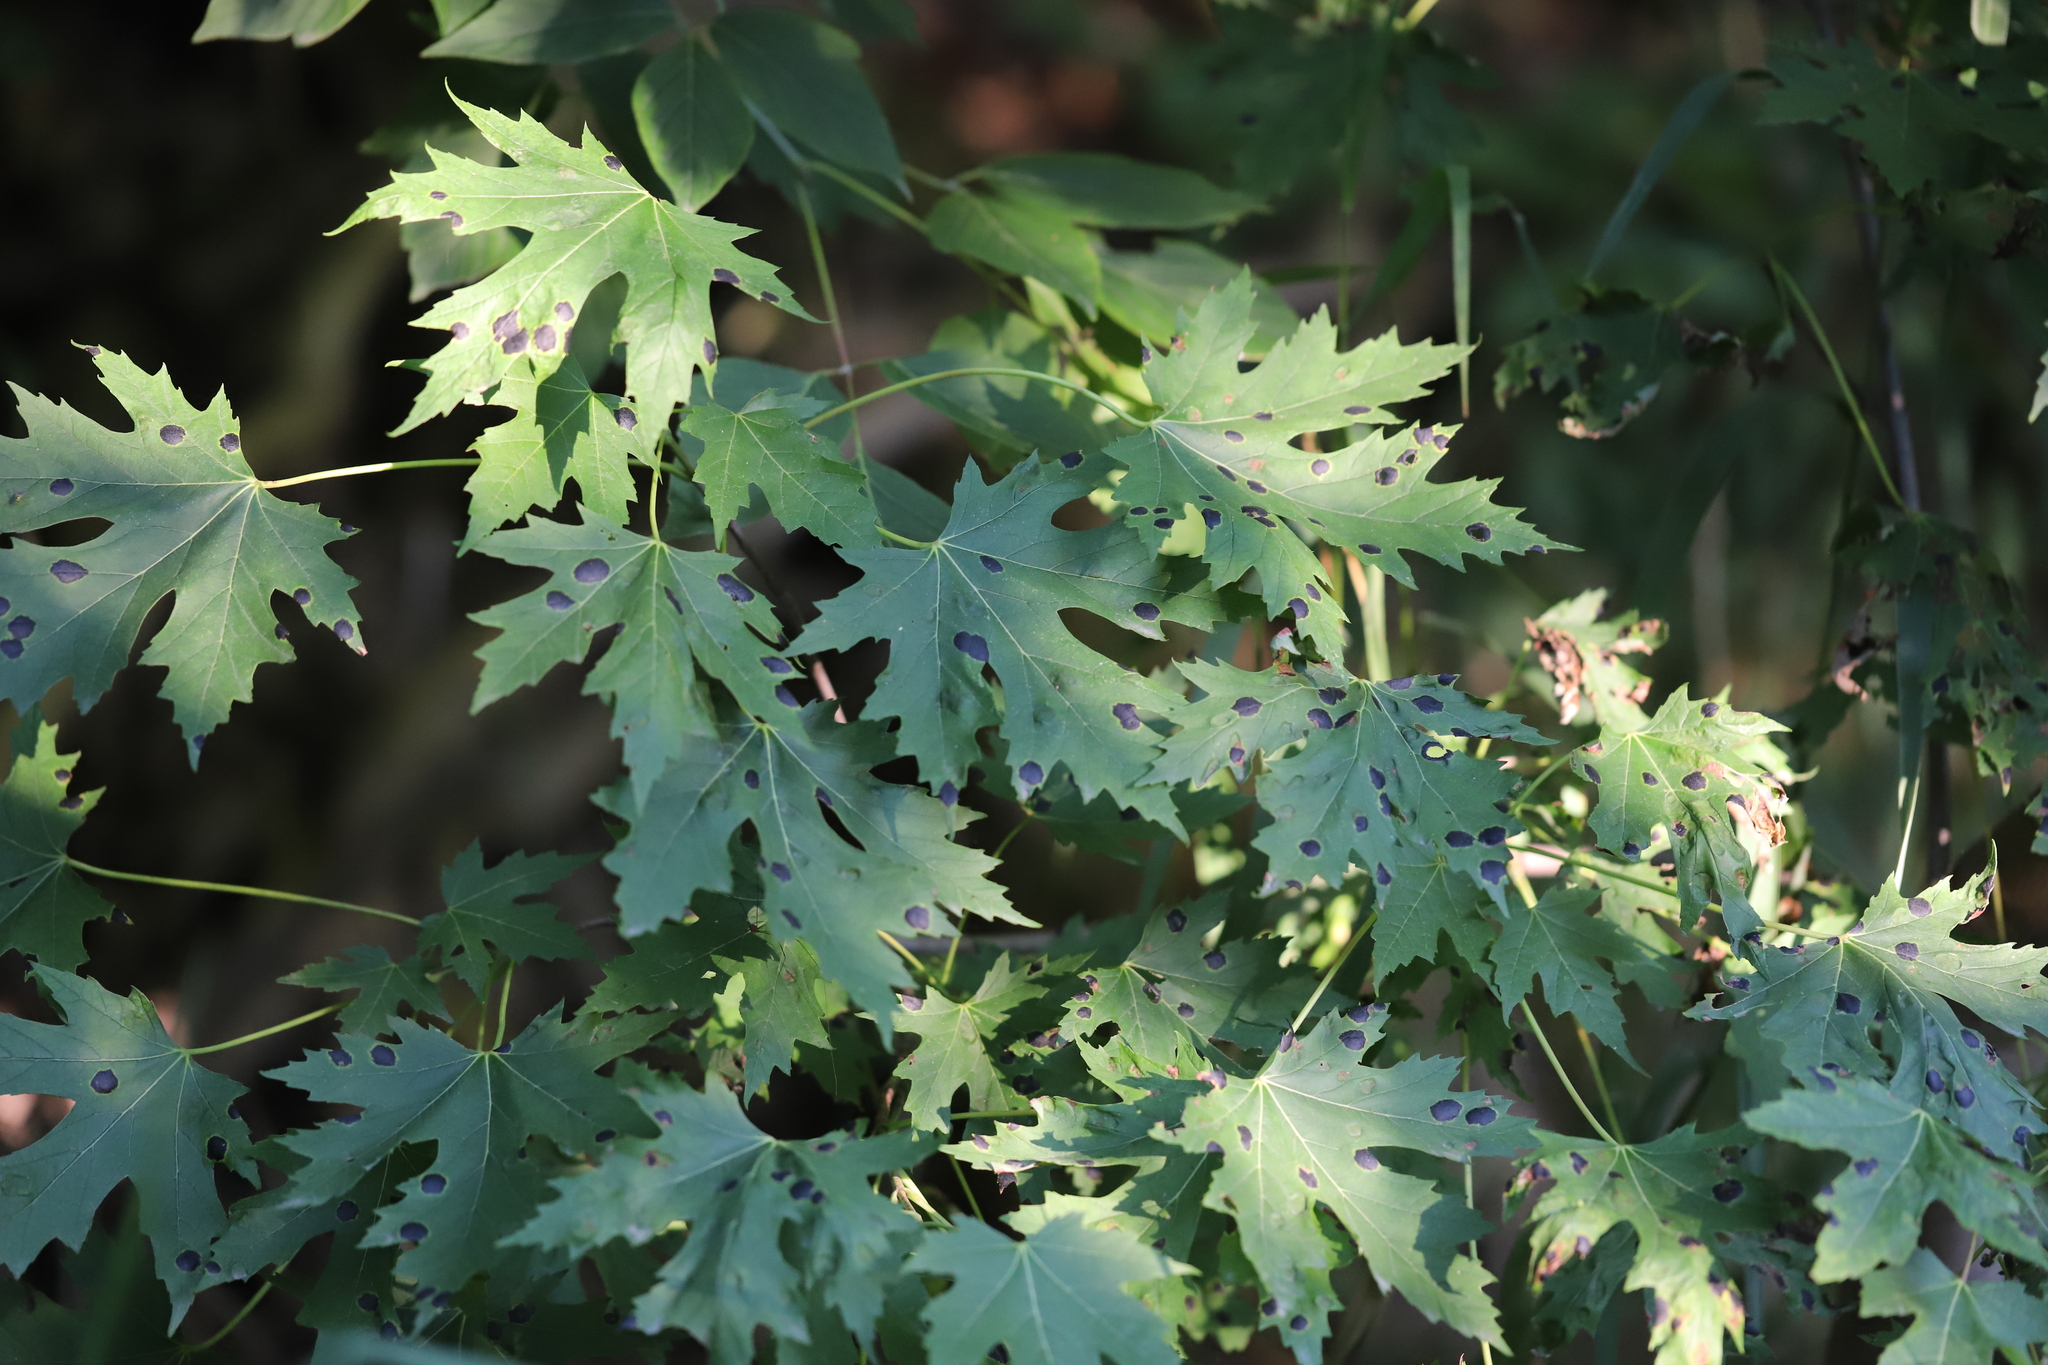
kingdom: Fungi
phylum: Ascomycota
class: Leotiomycetes
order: Rhytismatales
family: Rhytismataceae
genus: Rhytisma
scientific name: Rhytisma americanum
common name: American tar spot
